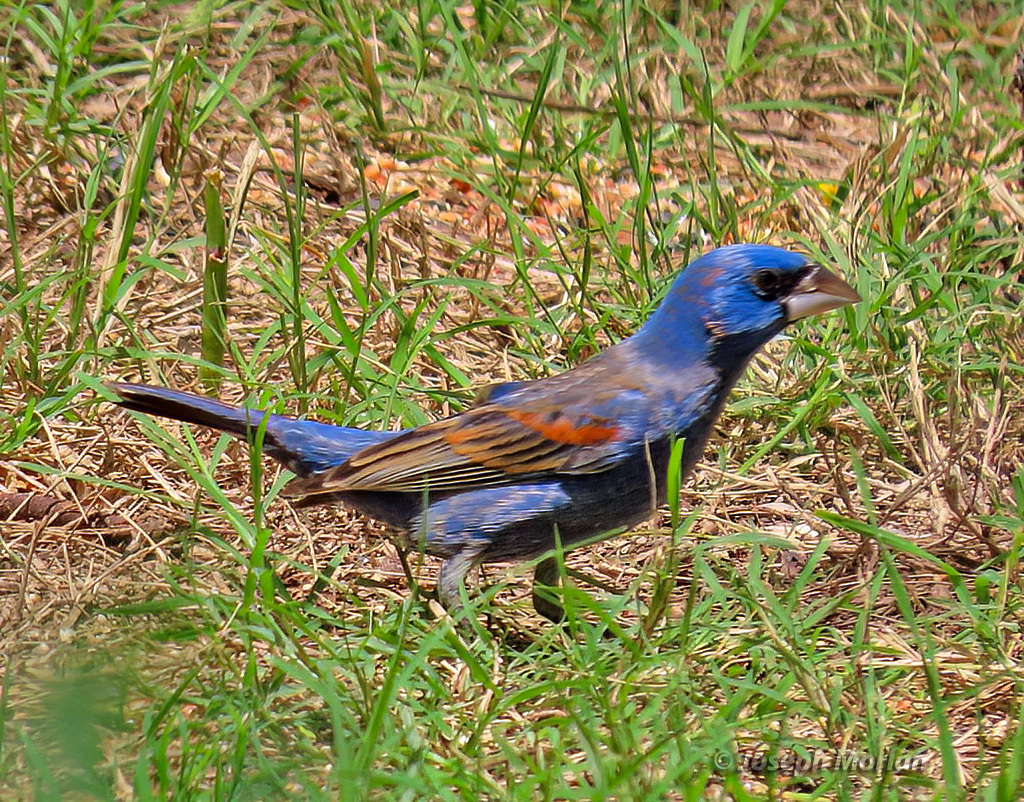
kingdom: Animalia
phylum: Chordata
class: Aves
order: Passeriformes
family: Cardinalidae
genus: Passerina
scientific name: Passerina caerulea
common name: Blue grosbeak
